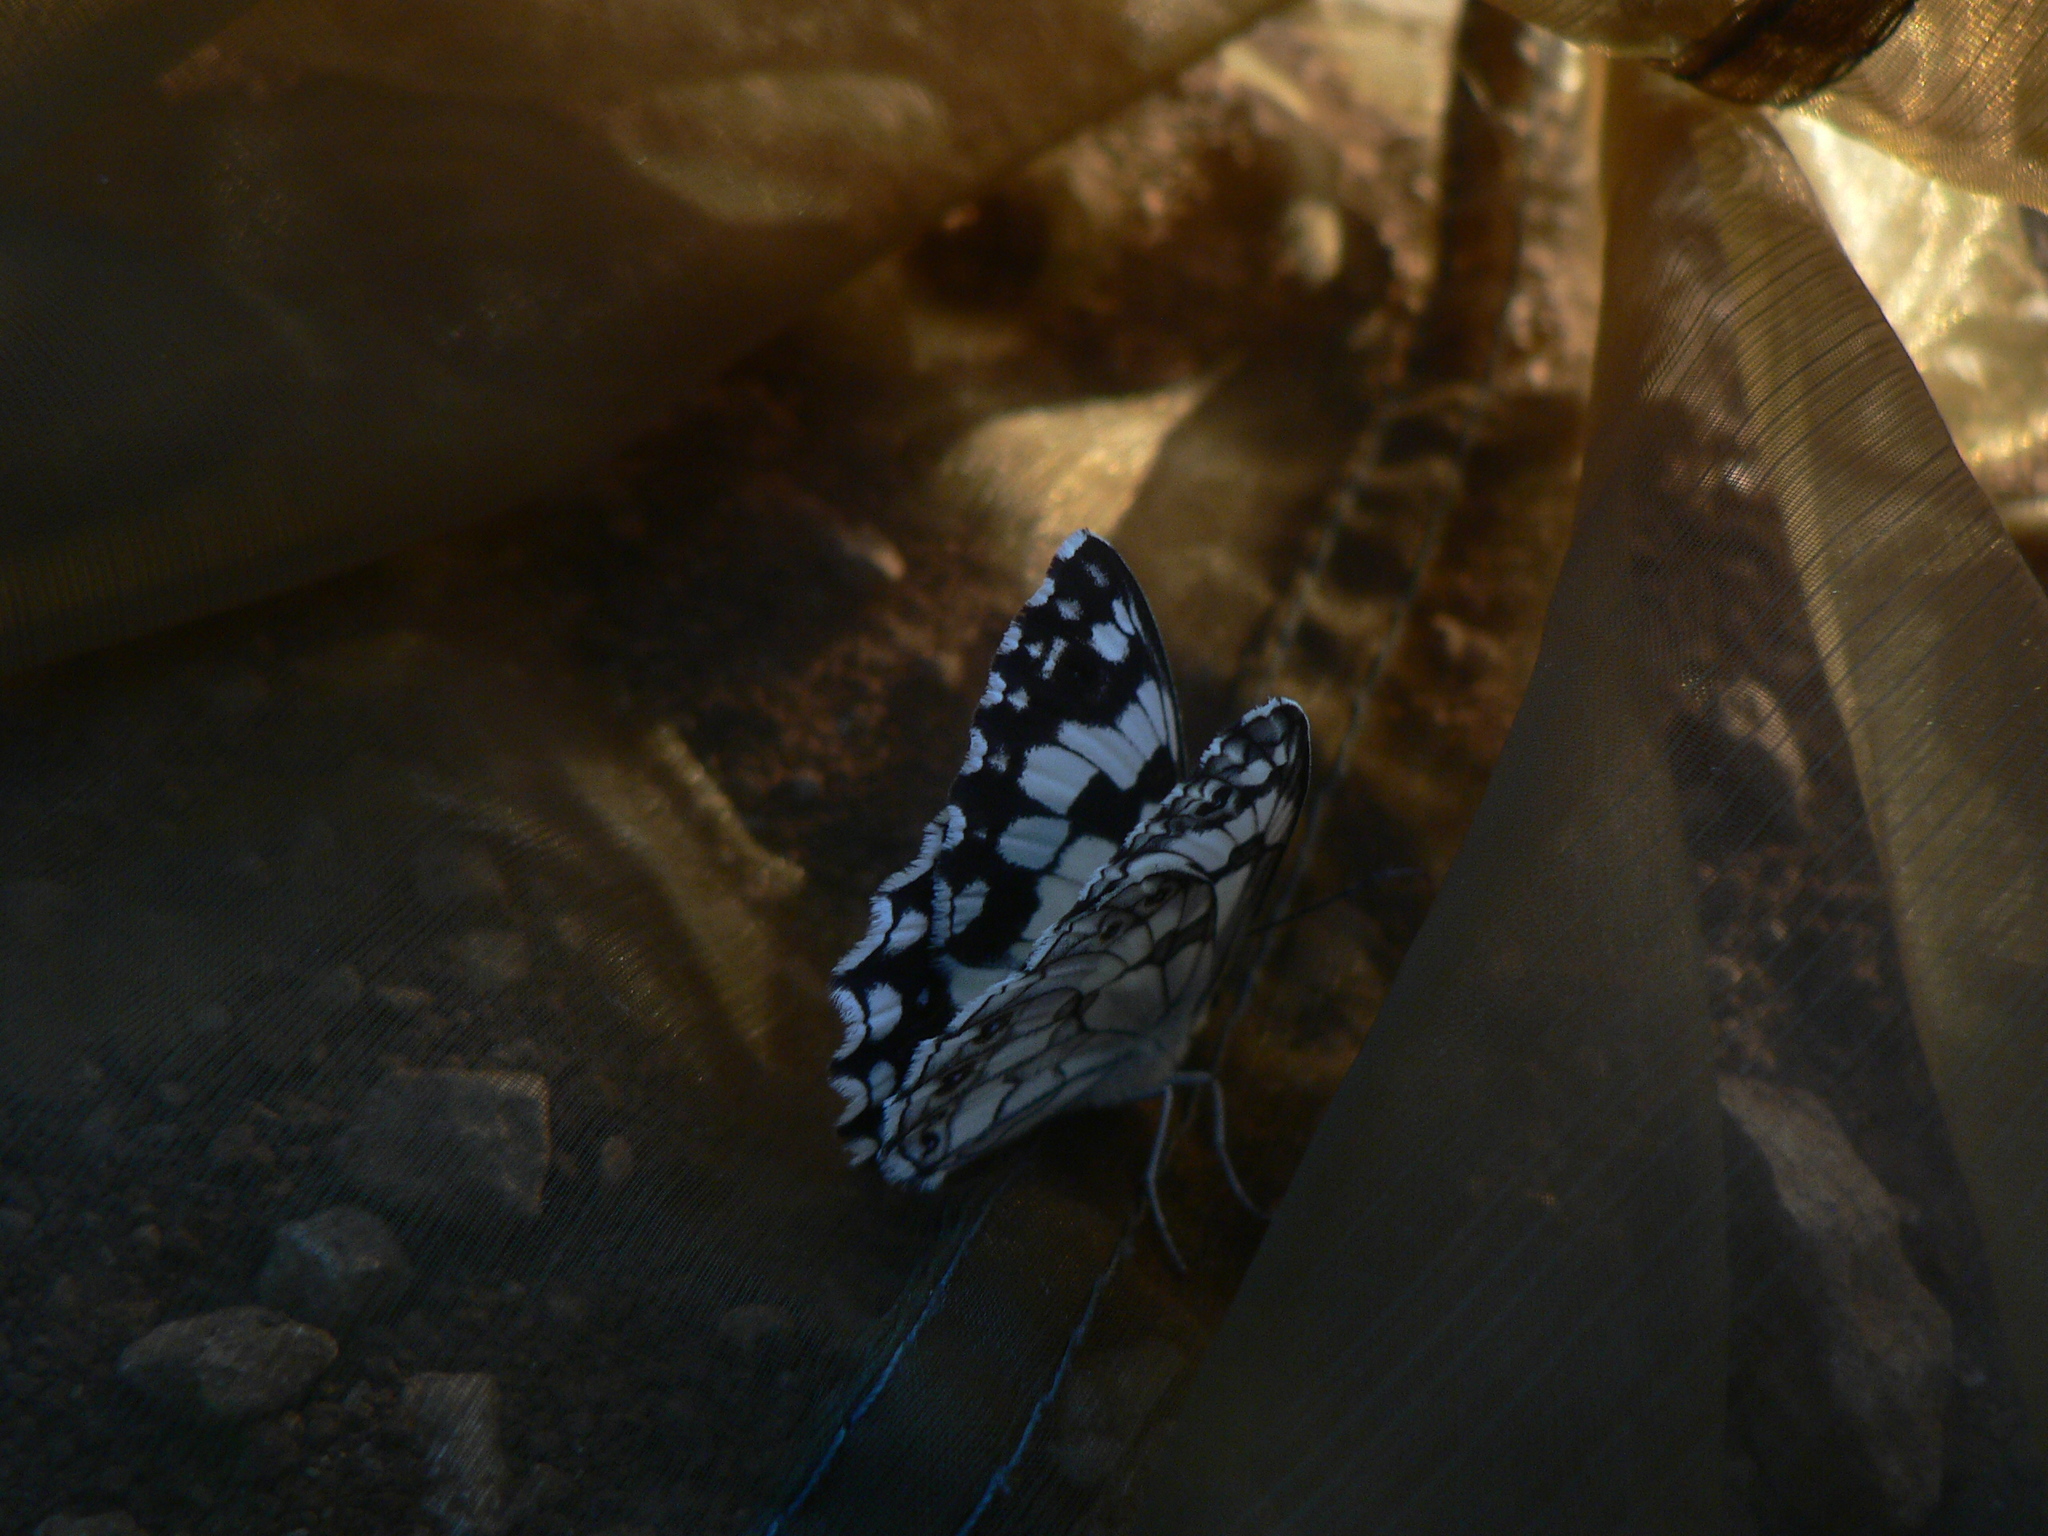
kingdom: Animalia
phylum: Arthropoda
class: Insecta
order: Lepidoptera
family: Nymphalidae
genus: Melanargia
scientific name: Melanargia lachesis
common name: Iberian marbled white
